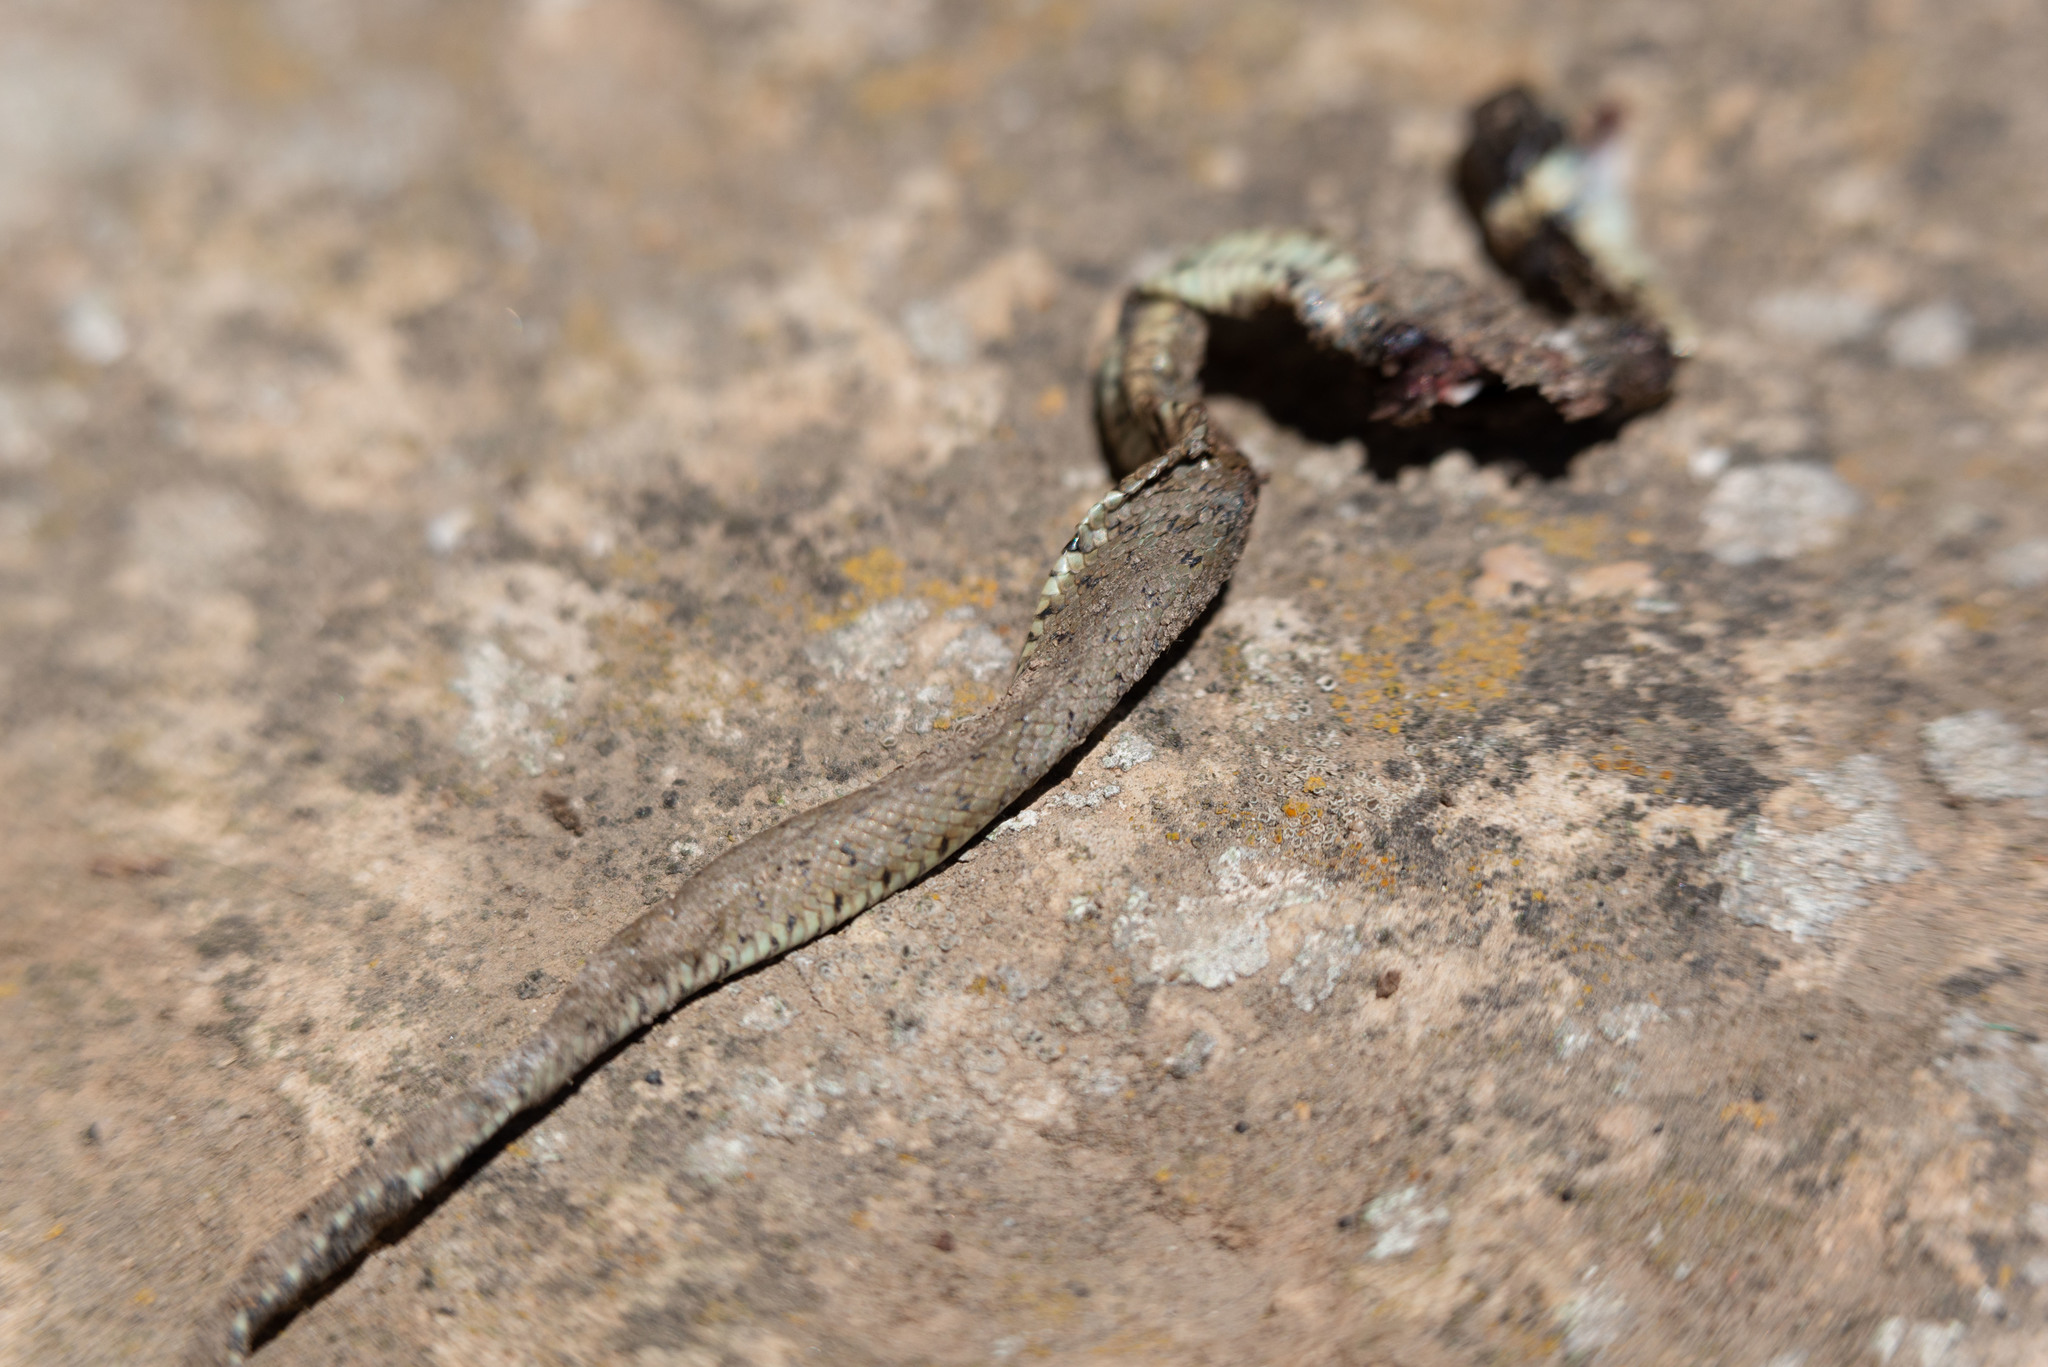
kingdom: Animalia
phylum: Chordata
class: Squamata
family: Colubridae
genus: Natrix
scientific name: Natrix astreptophora
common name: Red-eyed grass snake
